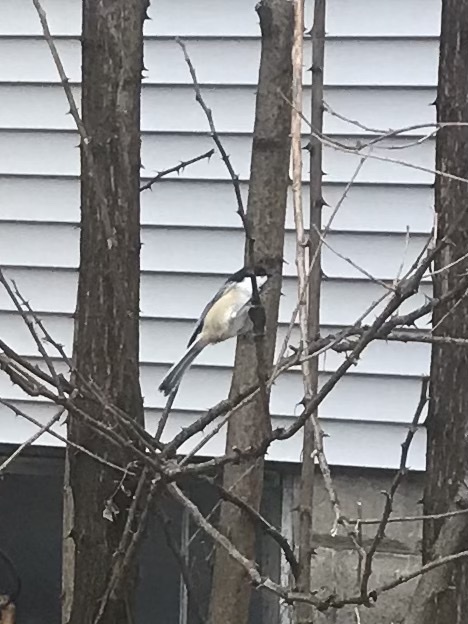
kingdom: Animalia
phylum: Chordata
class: Aves
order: Passeriformes
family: Paridae
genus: Poecile
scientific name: Poecile atricapillus
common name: Black-capped chickadee
